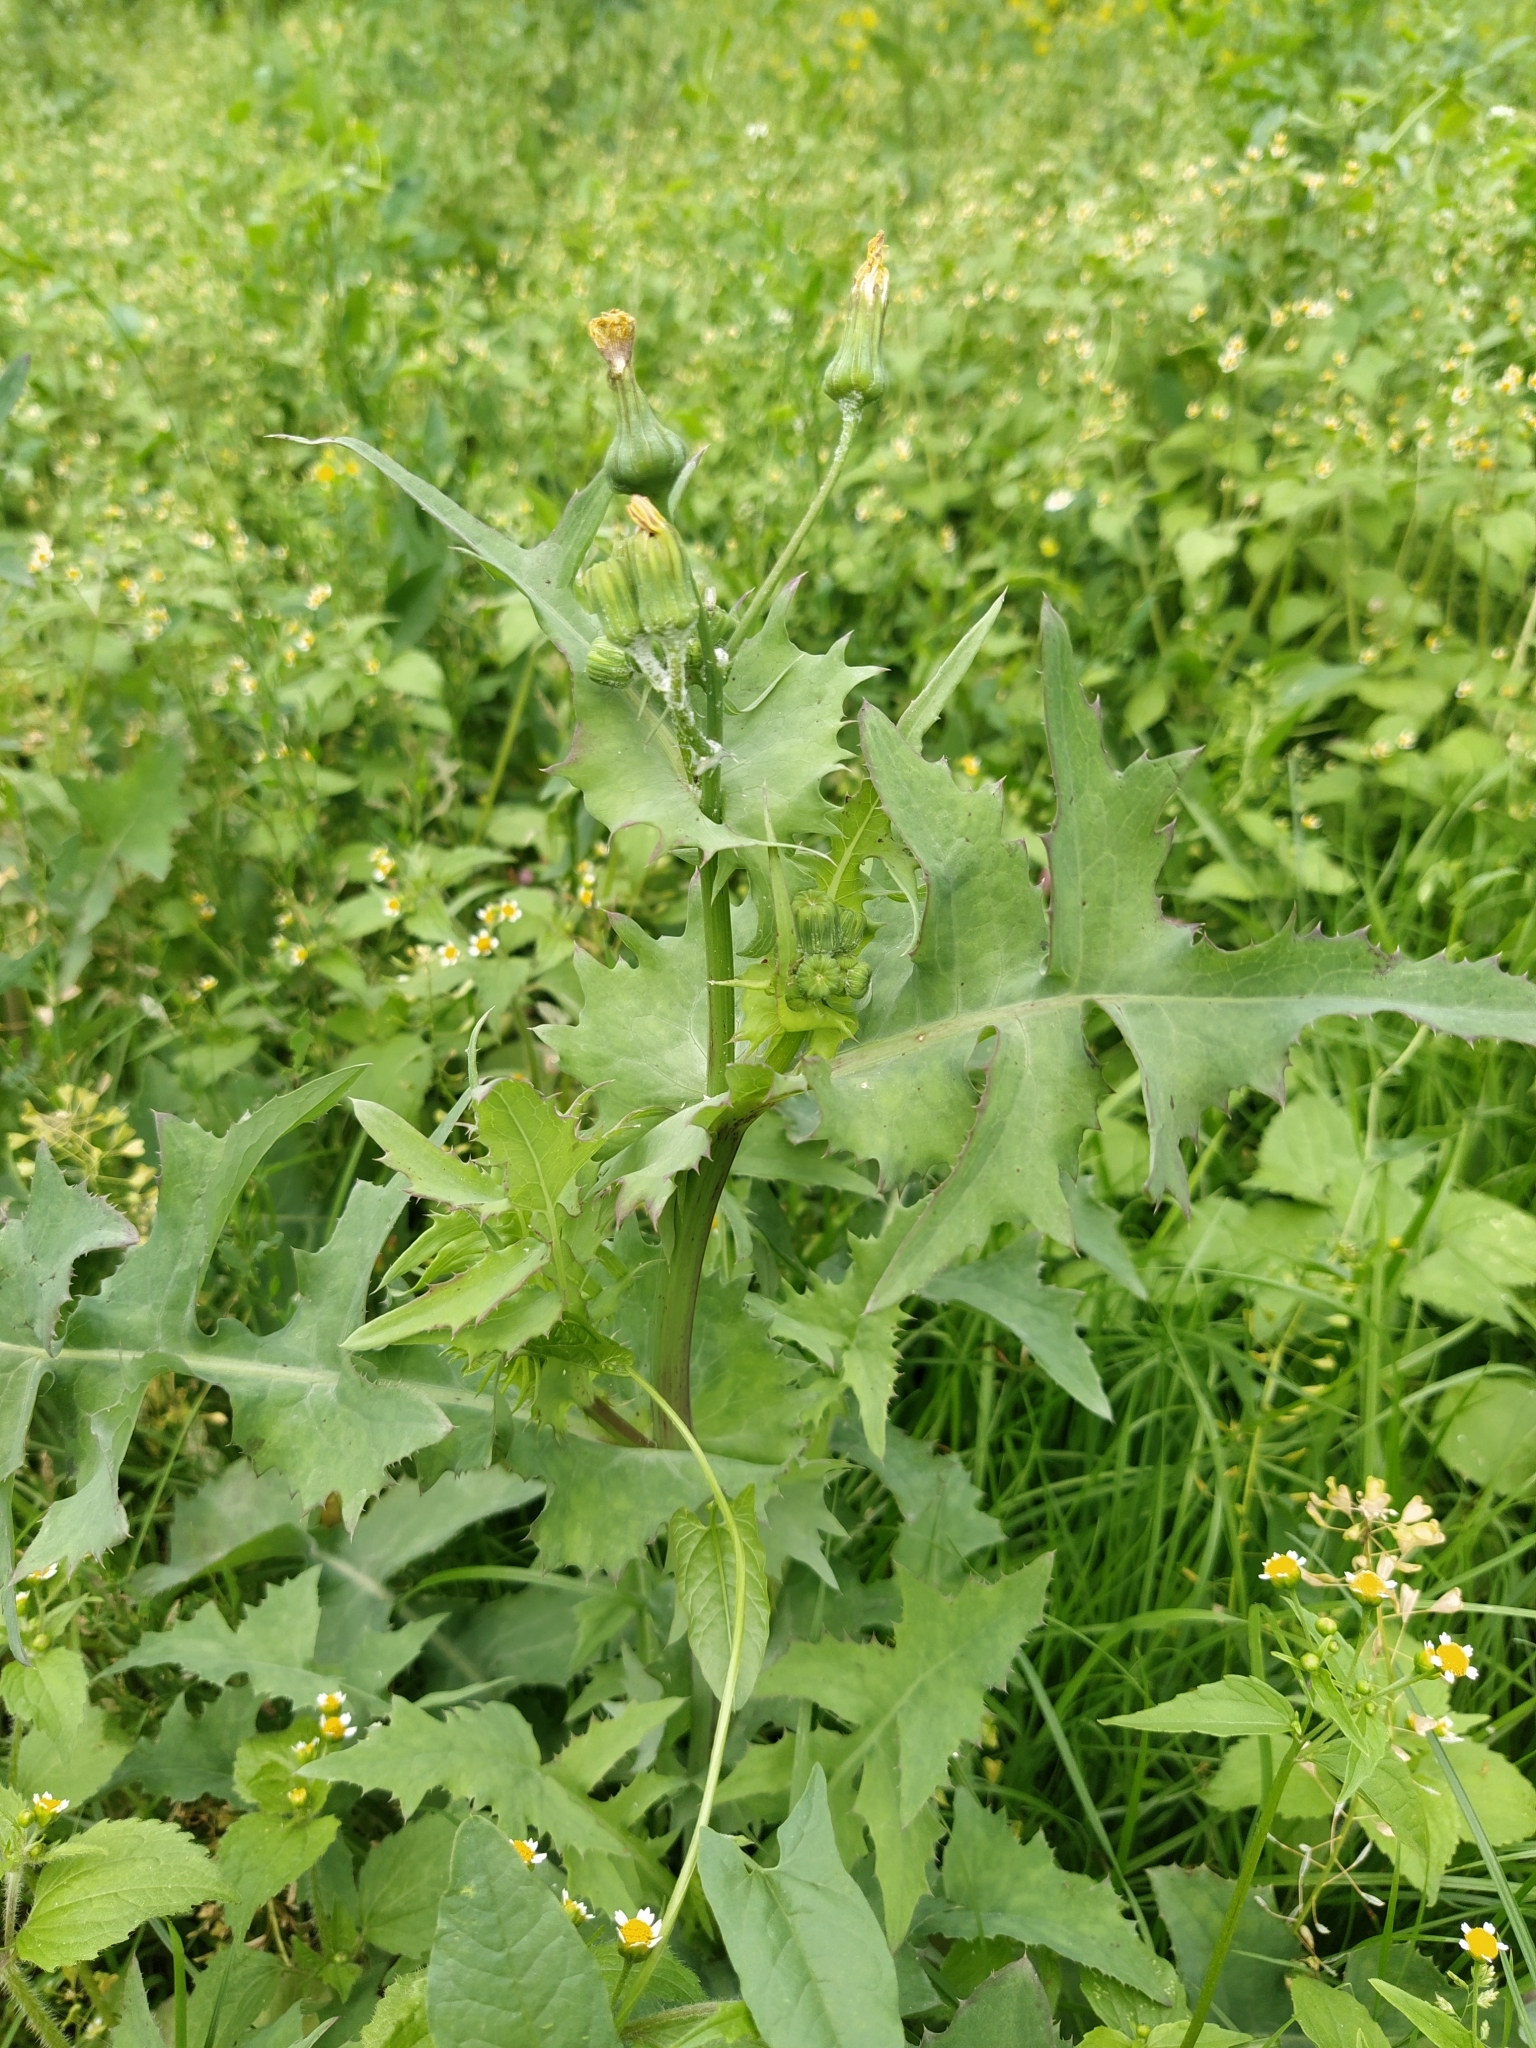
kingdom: Plantae
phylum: Tracheophyta
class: Magnoliopsida
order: Asterales
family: Asteraceae
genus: Sonchus
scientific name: Sonchus oleraceus
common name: Common sowthistle
